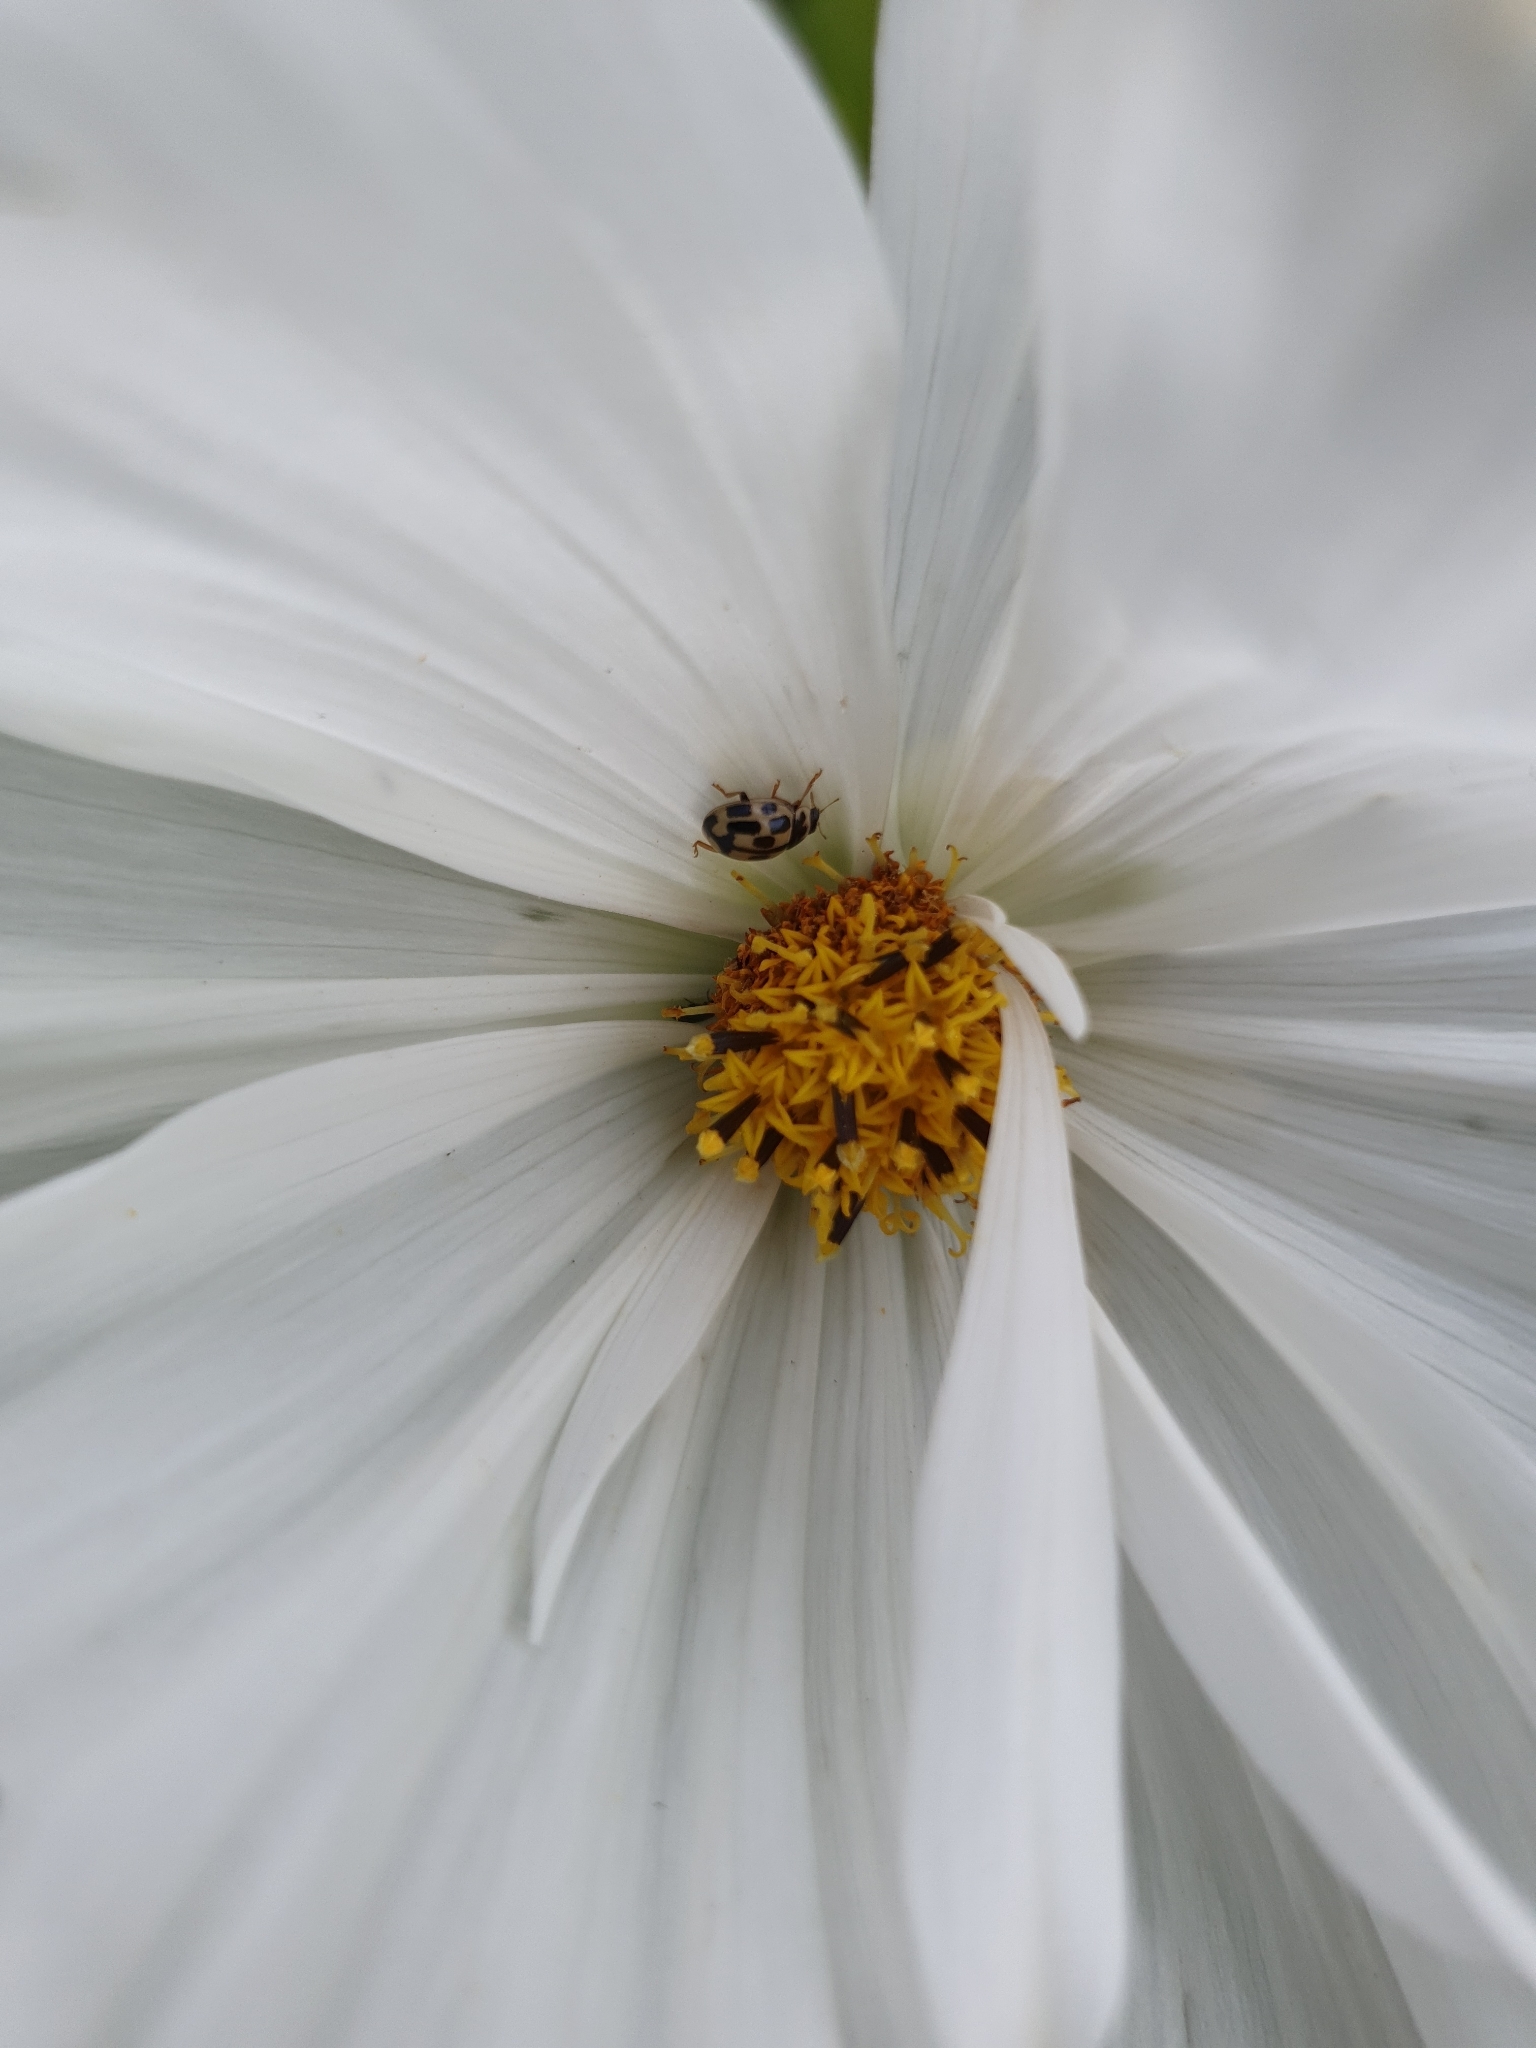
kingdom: Animalia
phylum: Arthropoda
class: Insecta
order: Coleoptera
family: Dermestidae
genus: Anthrenus
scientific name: Anthrenus verbasci
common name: Varied carpet beetle
